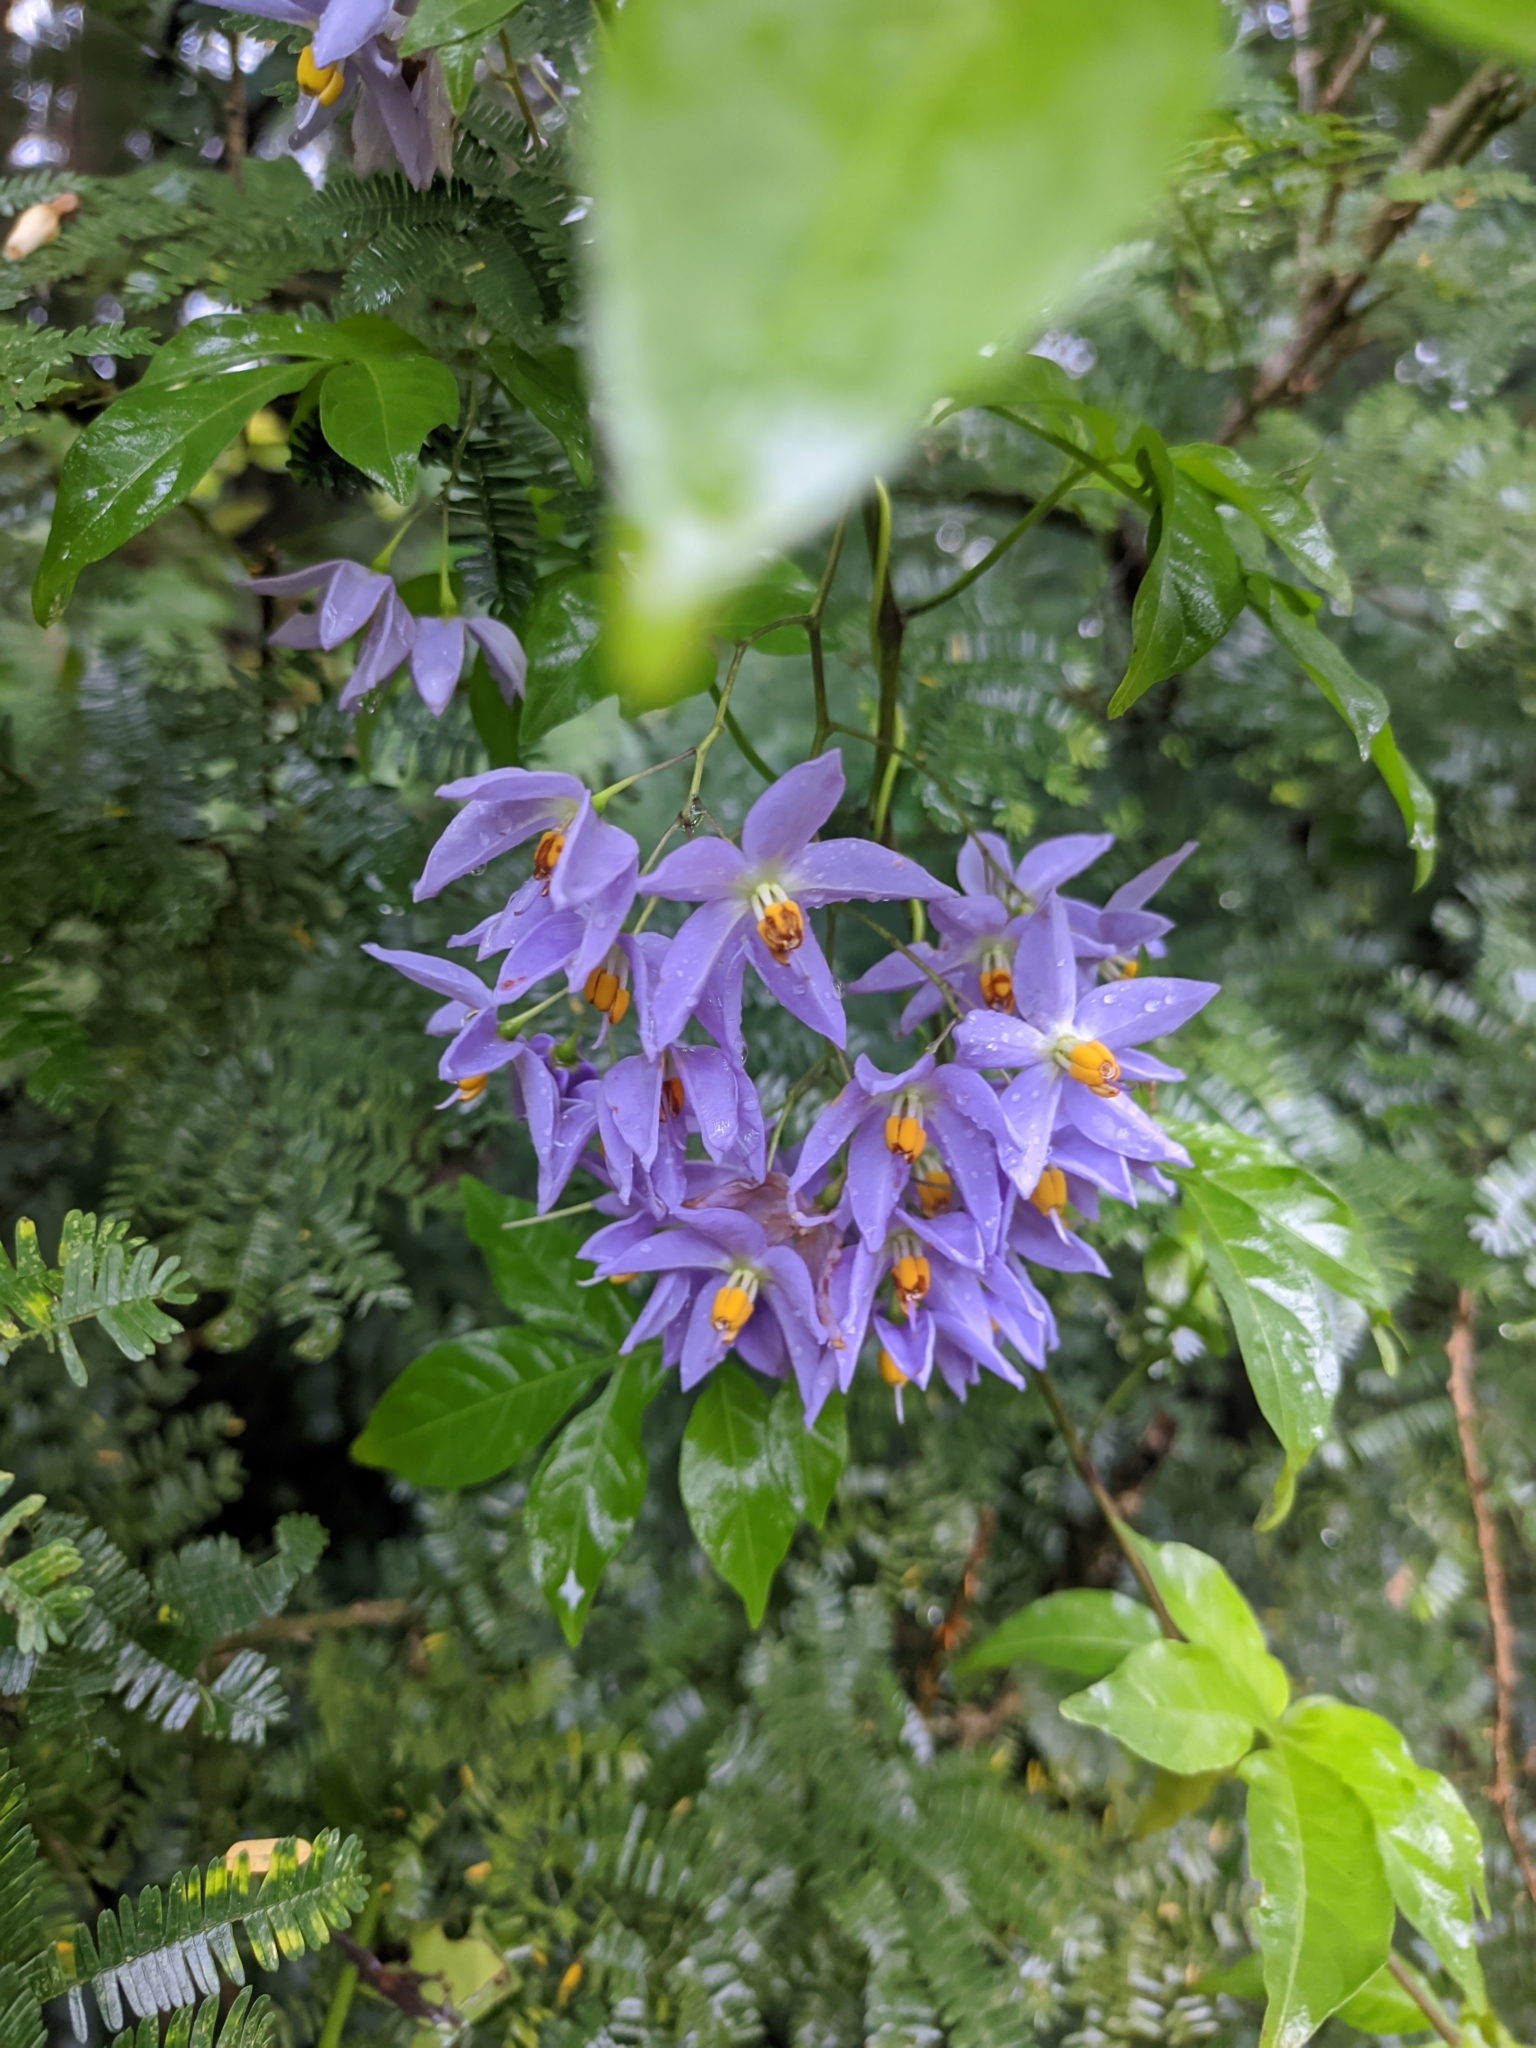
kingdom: Plantae
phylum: Tracheophyta
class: Magnoliopsida
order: Solanales
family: Solanaceae
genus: Solanum
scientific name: Solanum seaforthianum
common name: Brazilian nightshade
